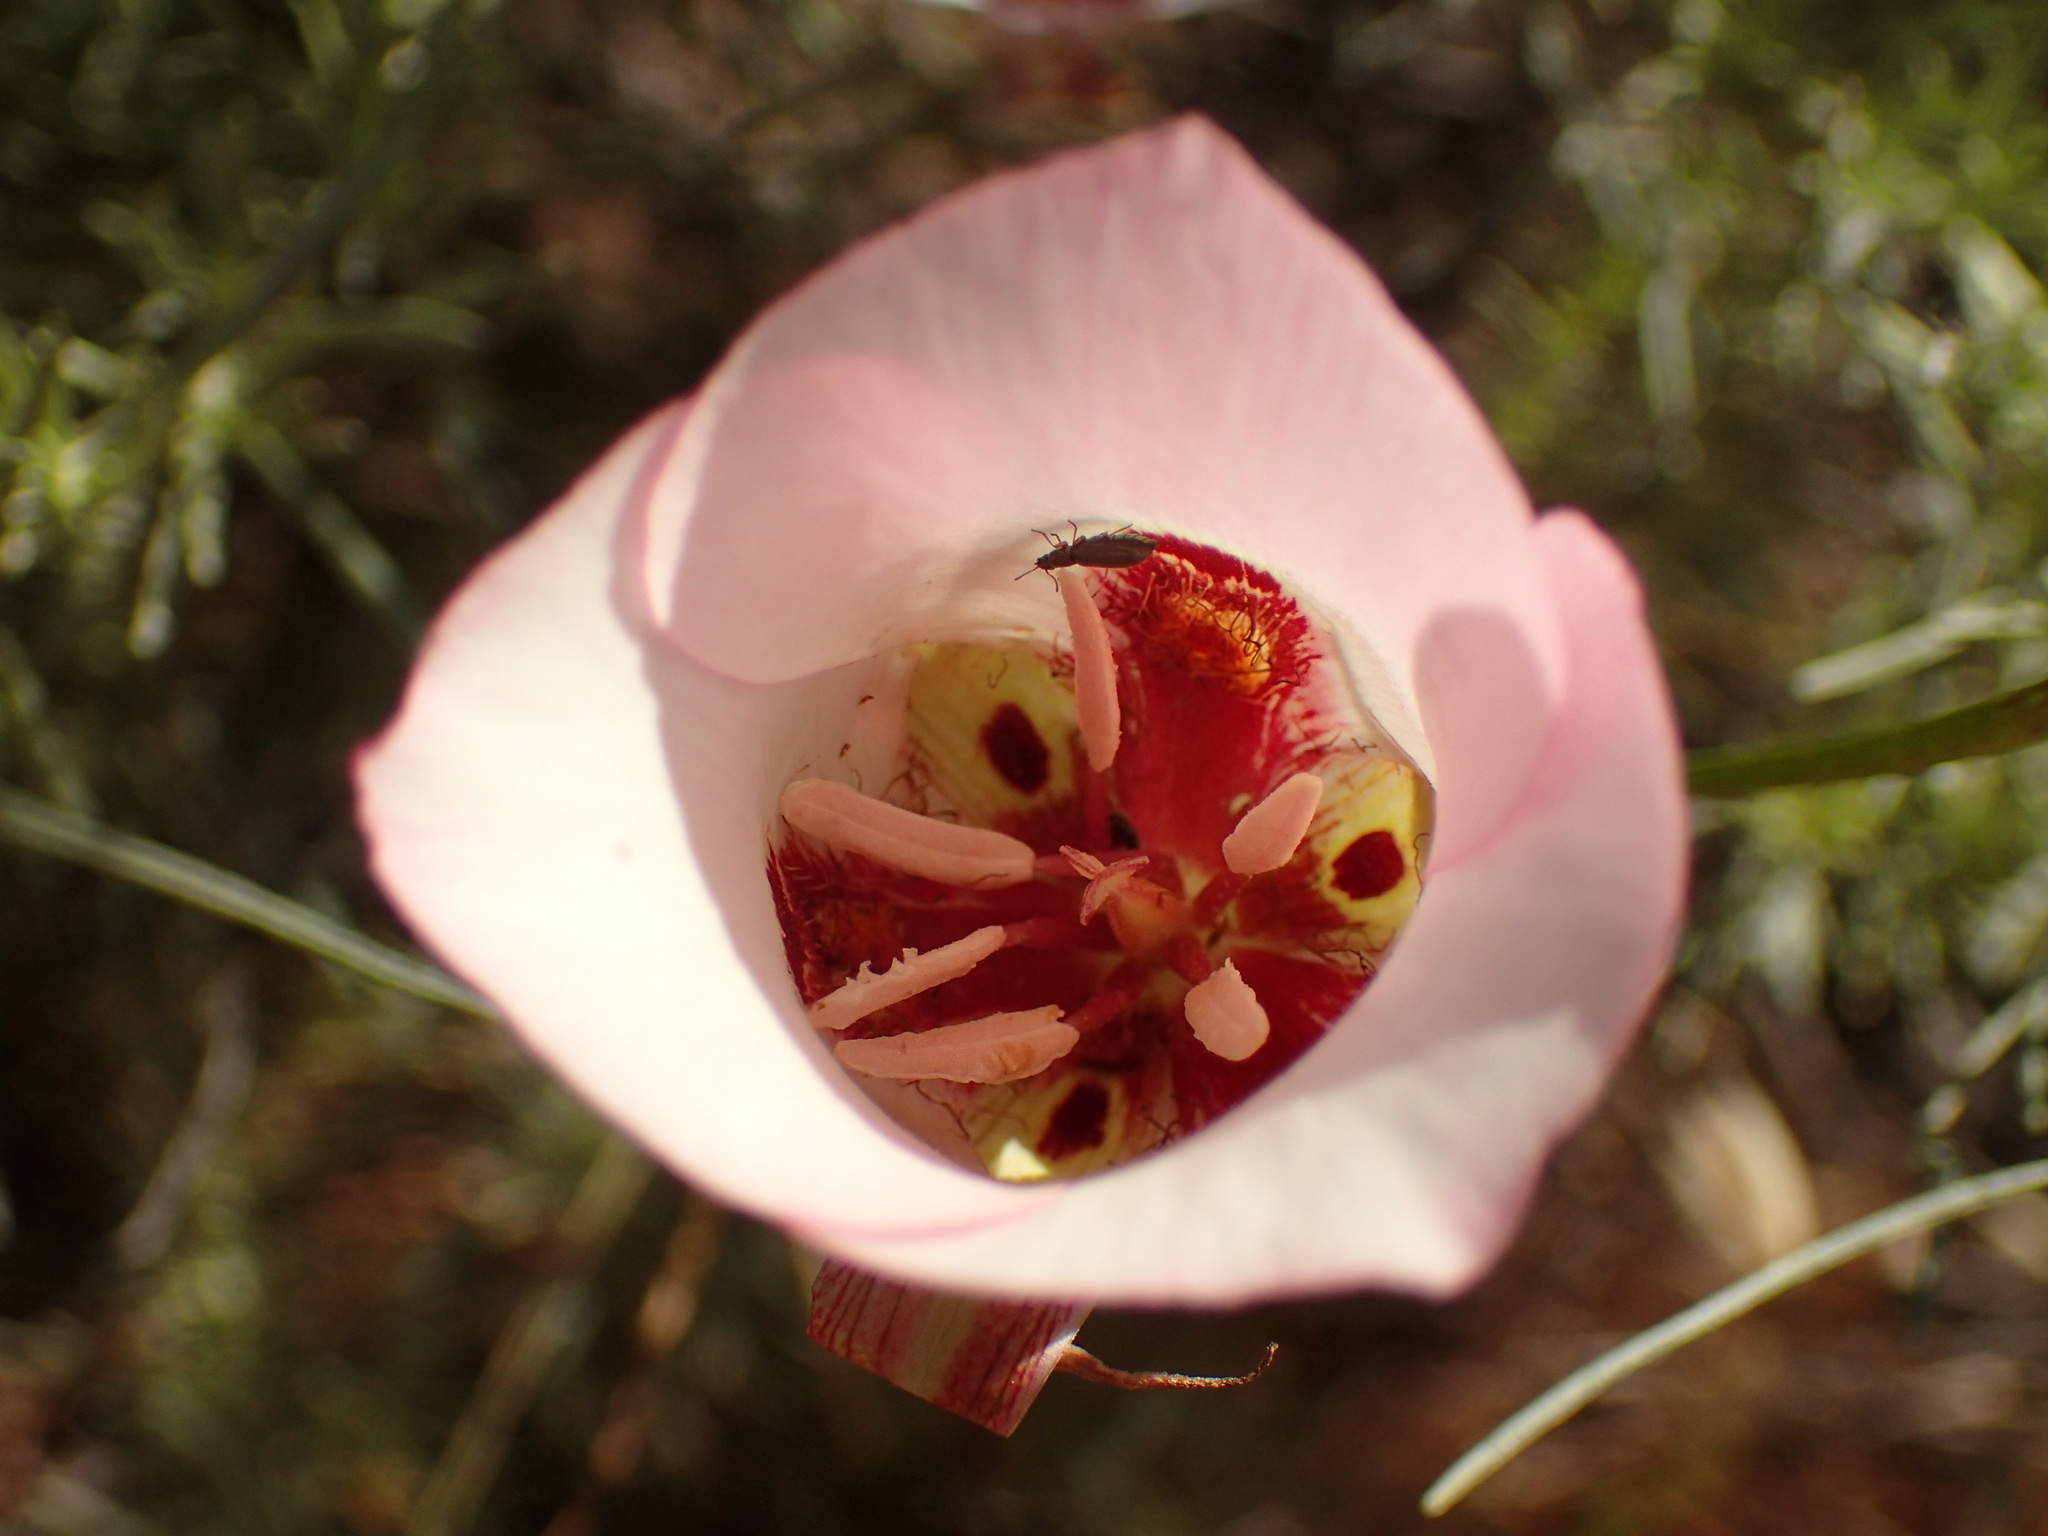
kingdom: Plantae
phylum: Tracheophyta
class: Liliopsida
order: Liliales
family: Liliaceae
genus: Calochortus
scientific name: Calochortus venustus
